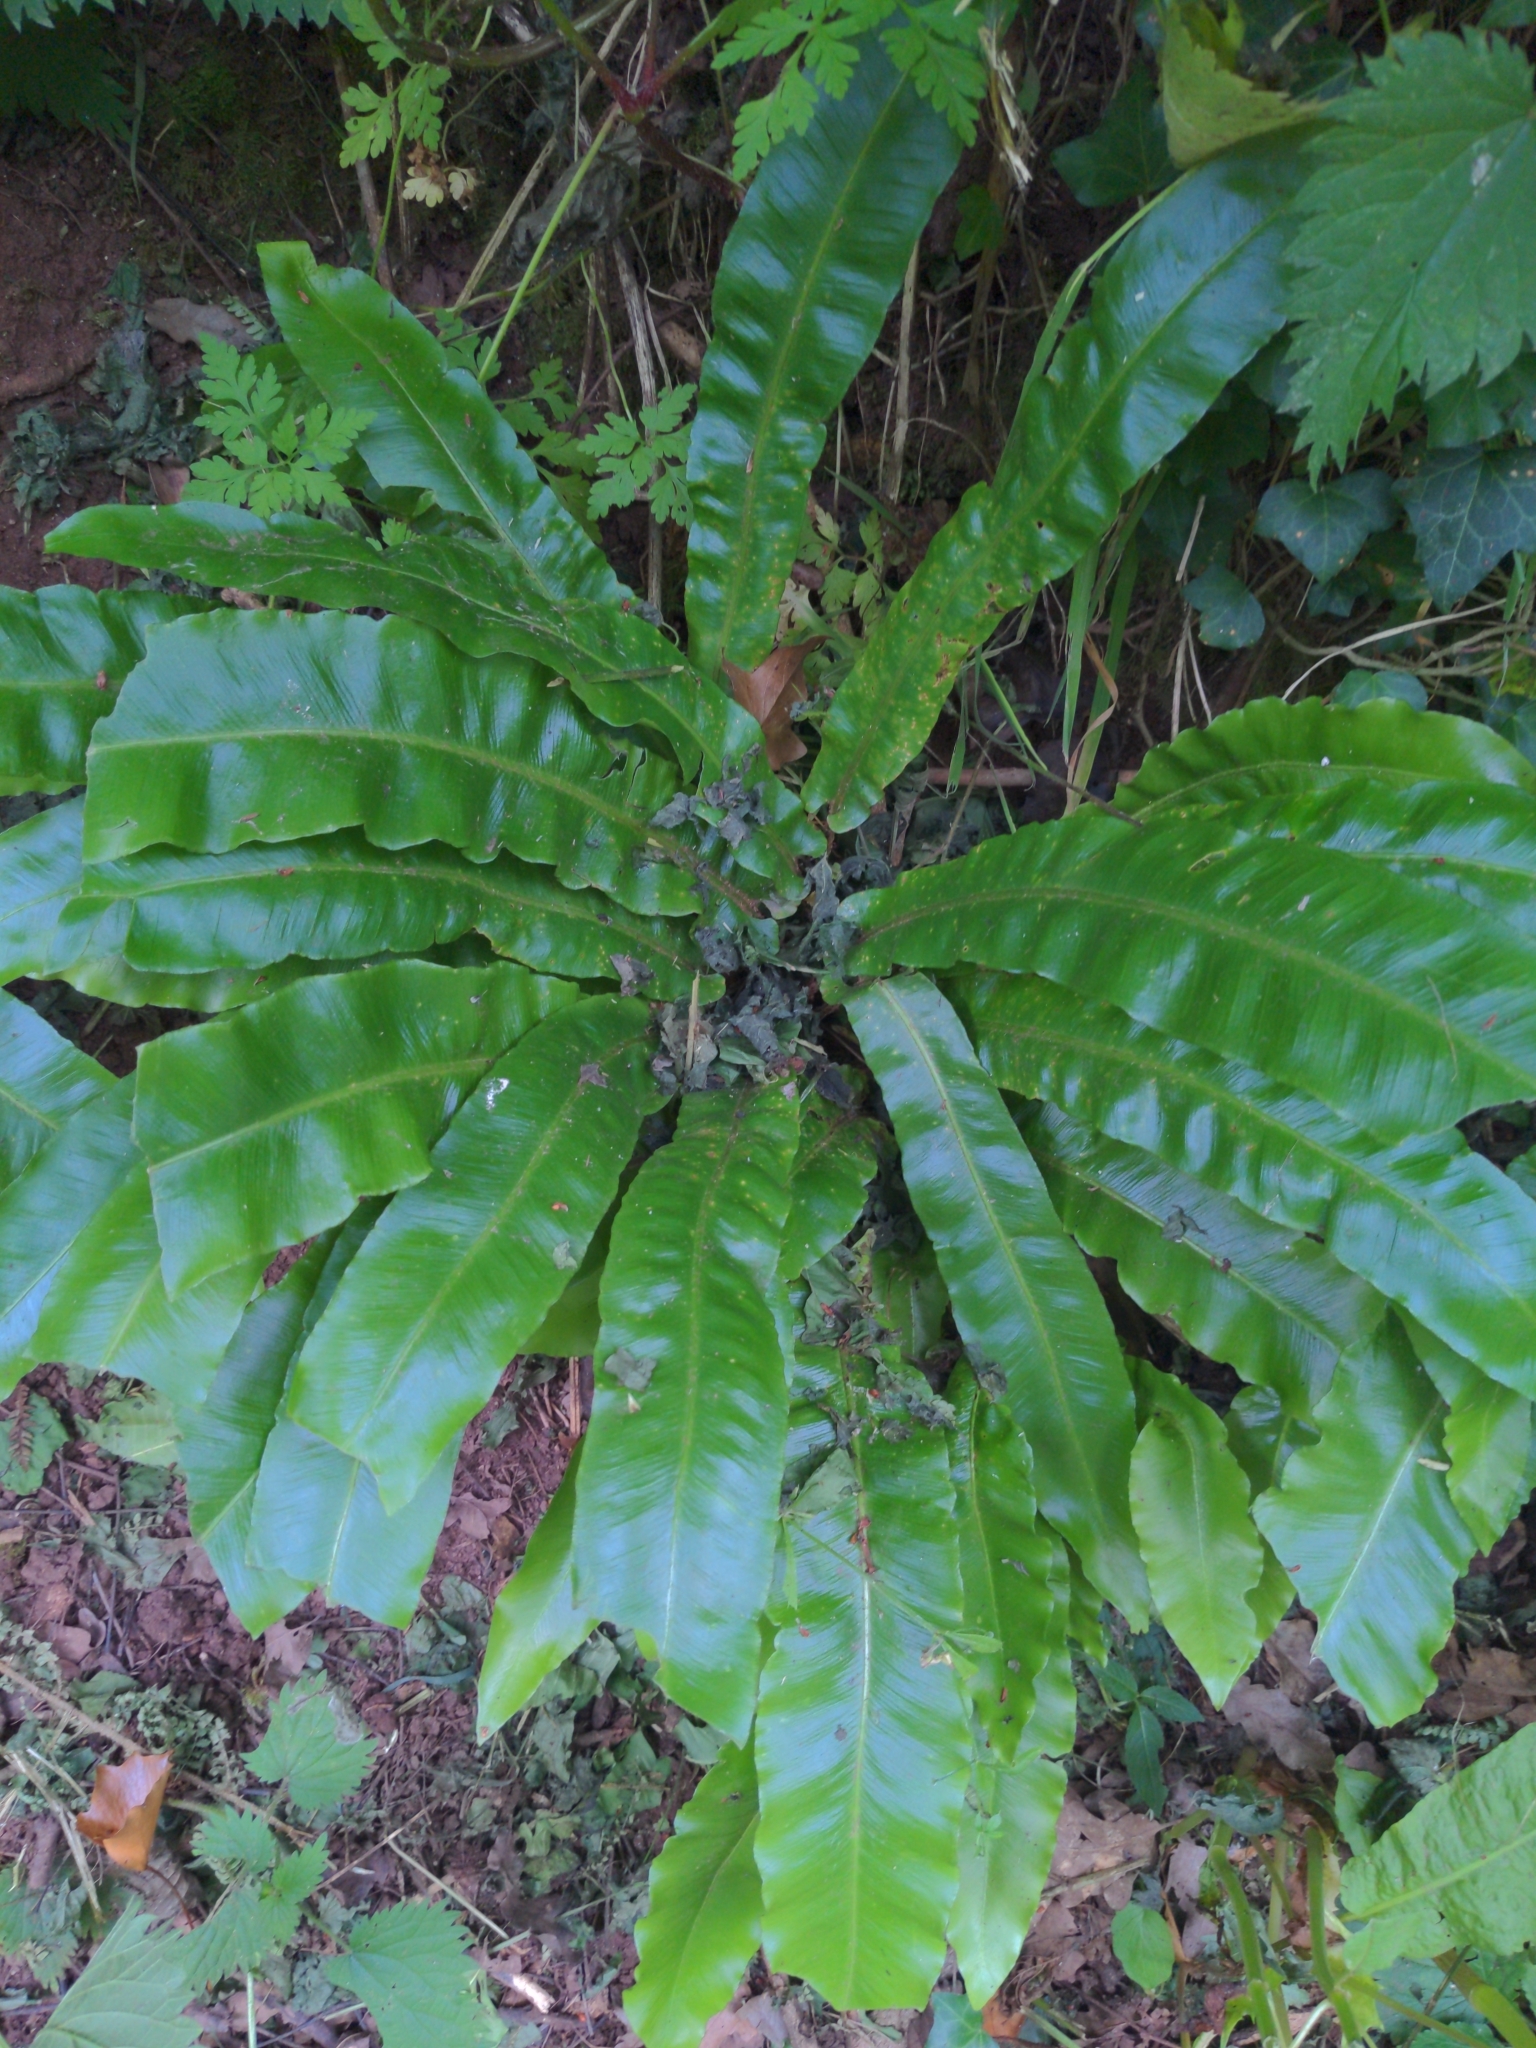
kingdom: Plantae
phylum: Tracheophyta
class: Polypodiopsida
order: Polypodiales
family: Aspleniaceae
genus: Asplenium
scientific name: Asplenium scolopendrium
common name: Hart's-tongue fern
